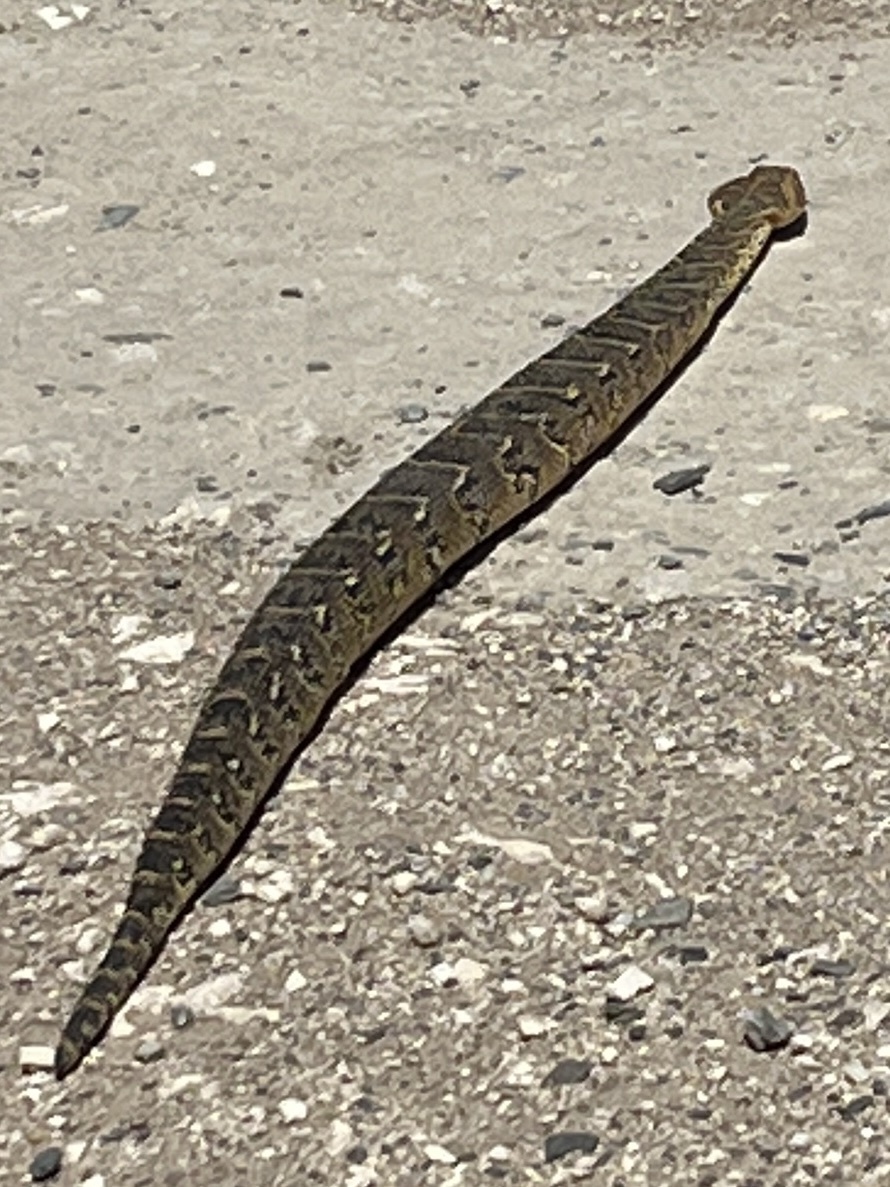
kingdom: Animalia
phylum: Chordata
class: Squamata
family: Viperidae
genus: Bitis
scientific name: Bitis arietans
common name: Puff adder
